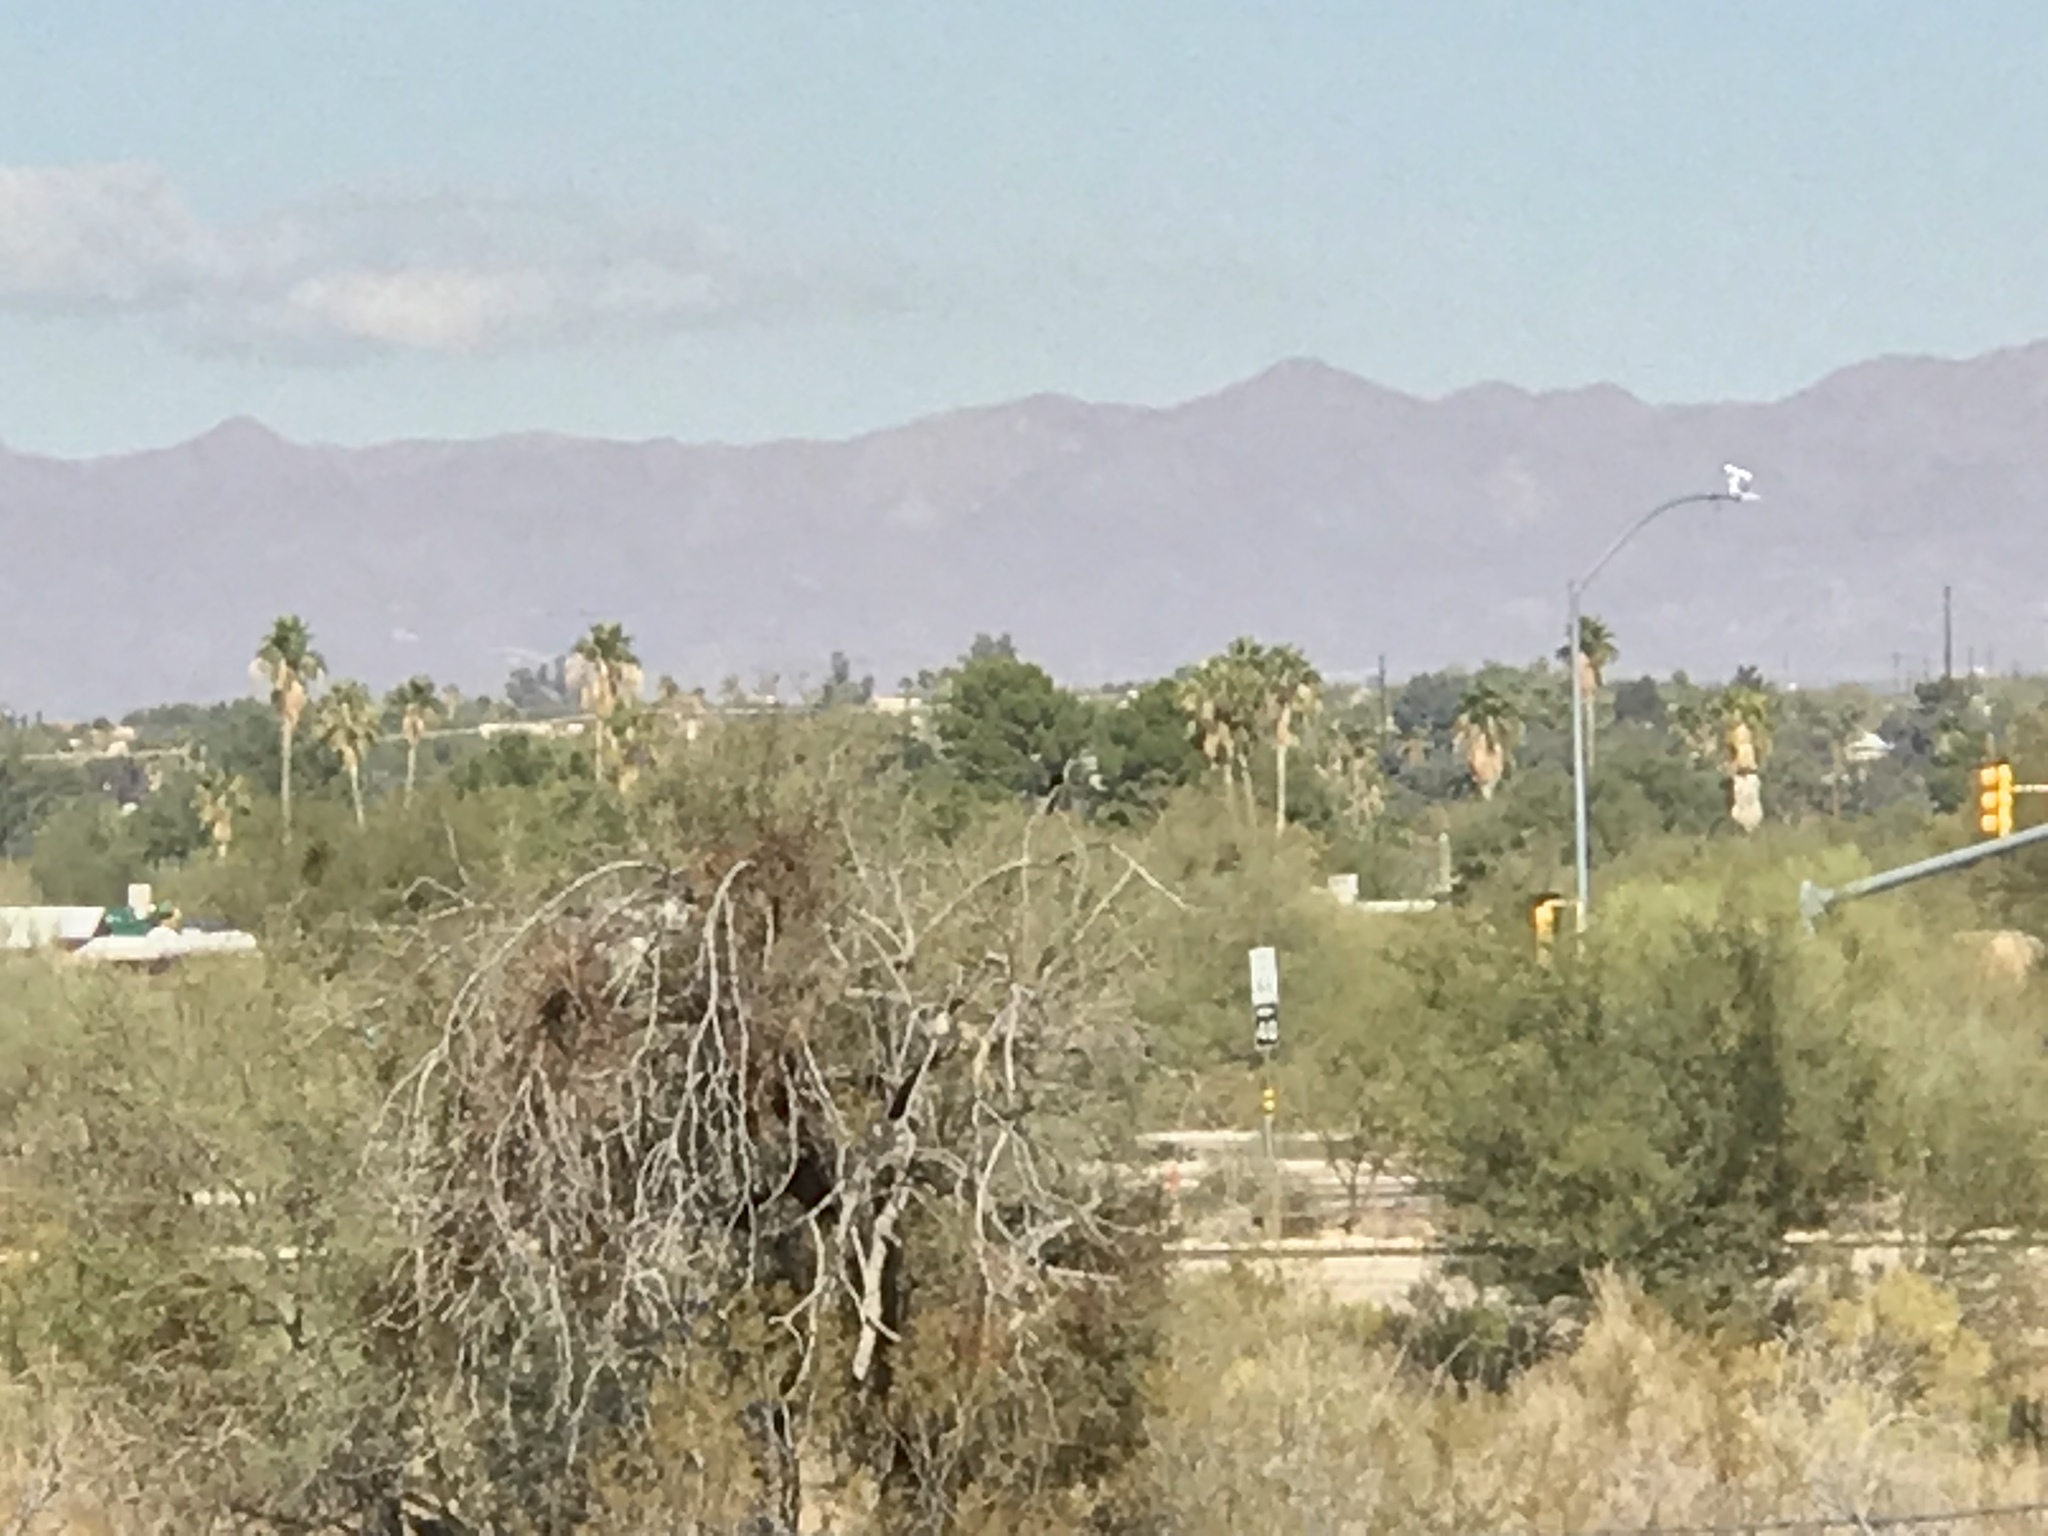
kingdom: Animalia
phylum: Chordata
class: Aves
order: Passeriformes
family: Ptilogonatidae
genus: Phainopepla
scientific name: Phainopepla nitens
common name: Phainopepla
